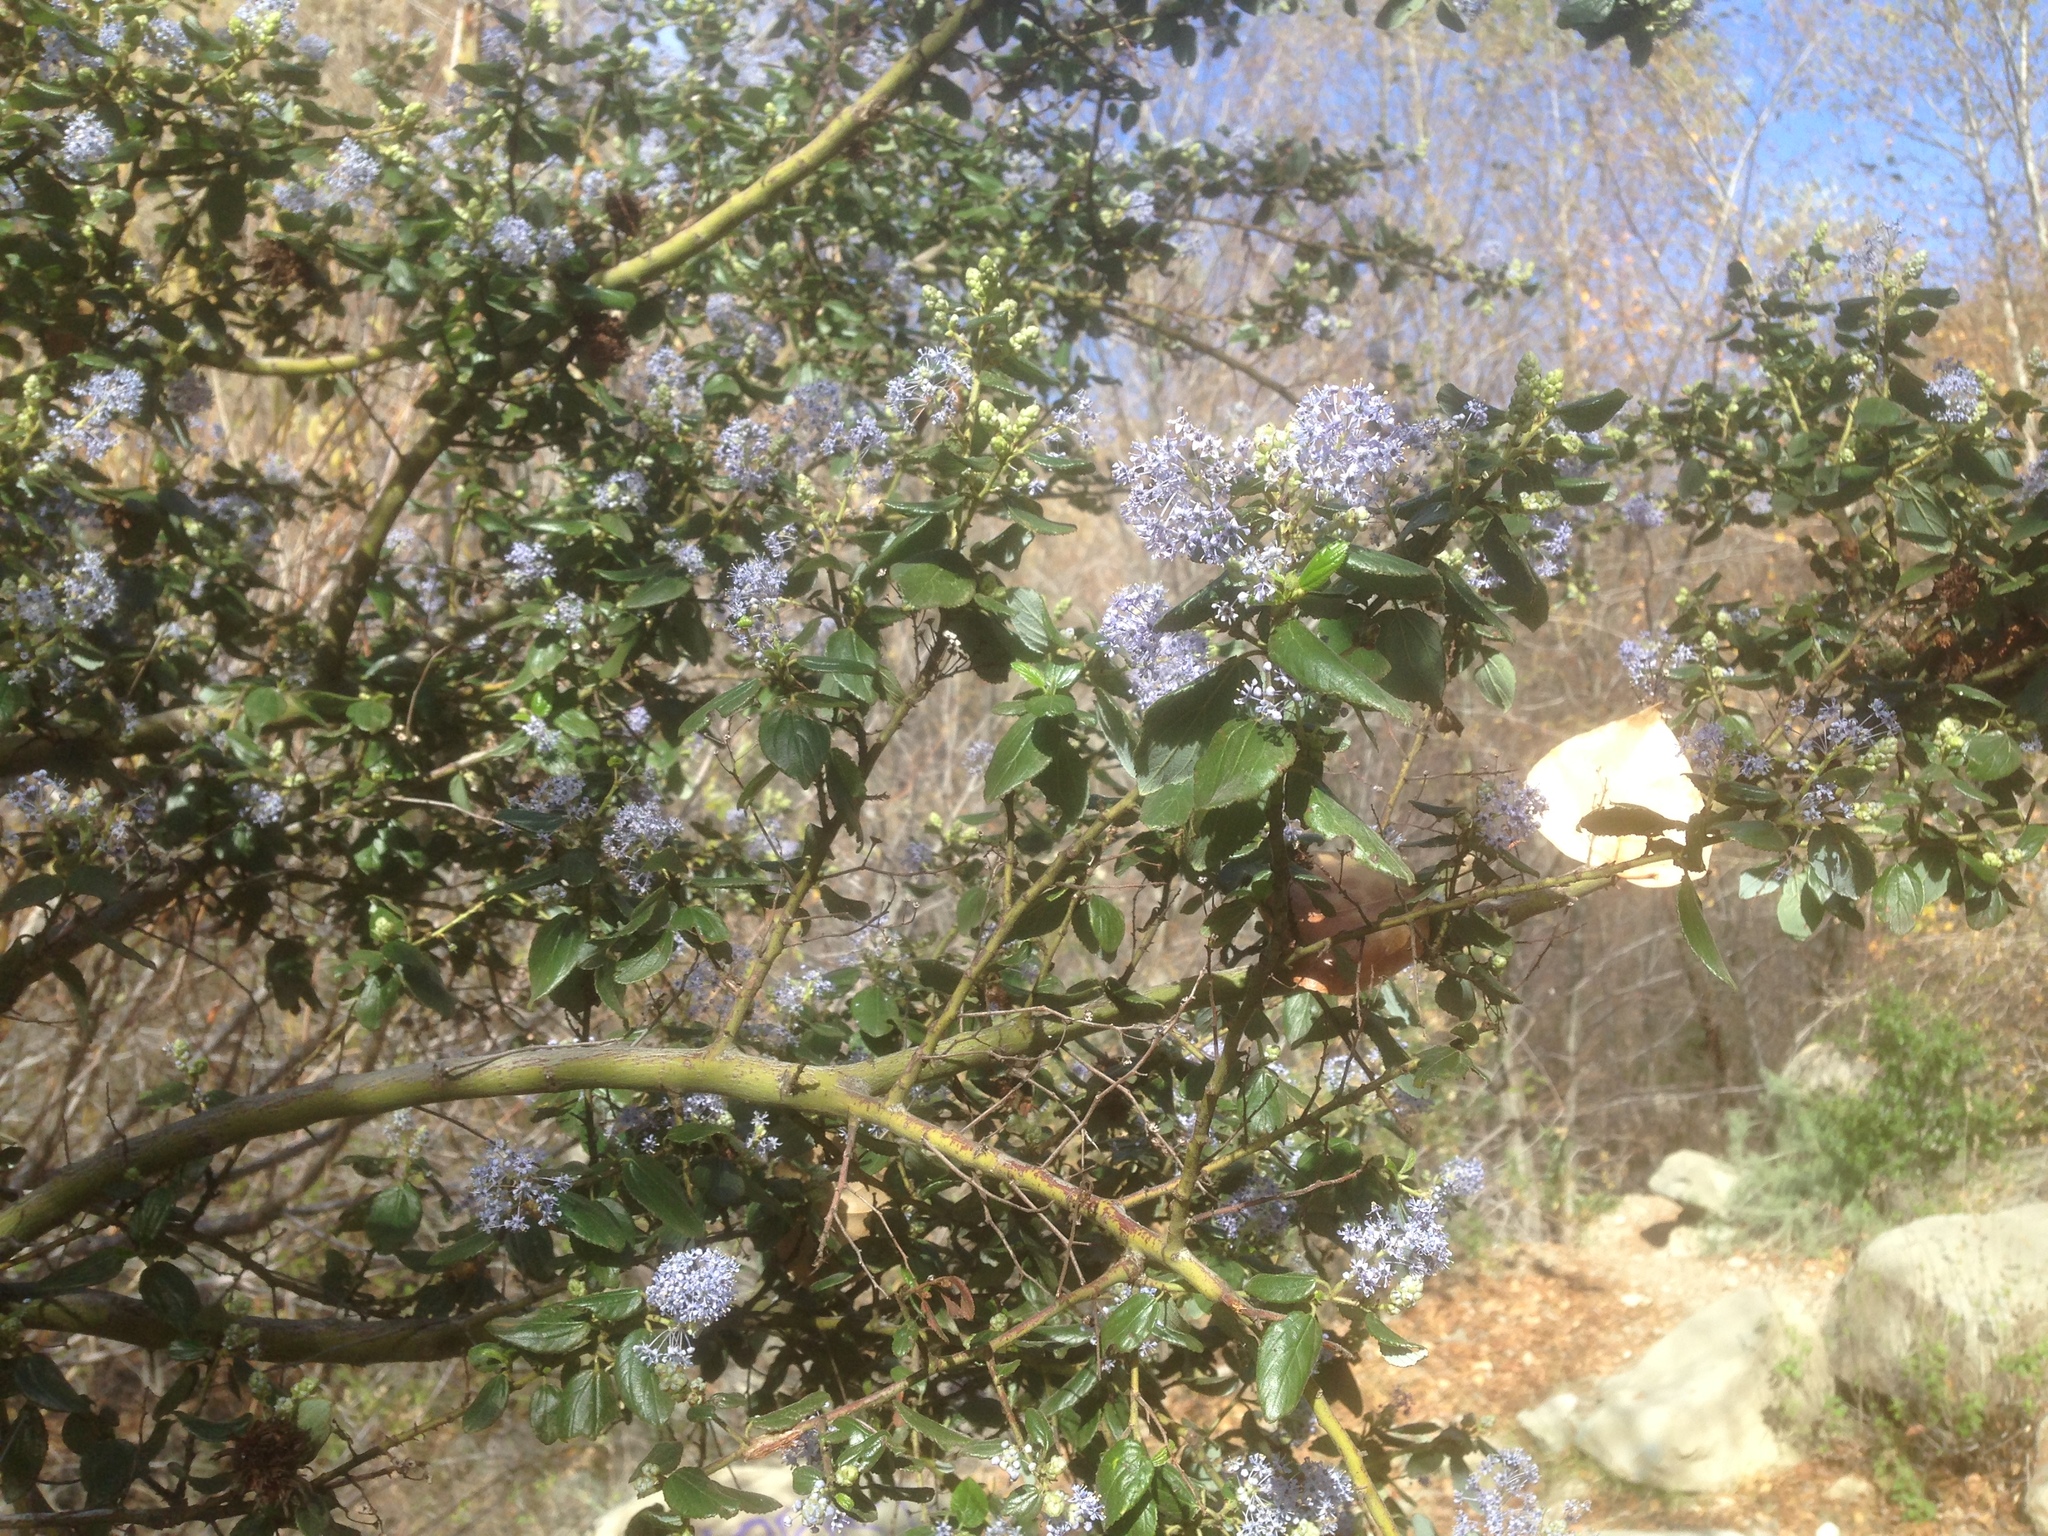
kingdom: Plantae
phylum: Tracheophyta
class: Magnoliopsida
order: Rosales
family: Rhamnaceae
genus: Ceanothus
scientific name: Ceanothus oliganthus
